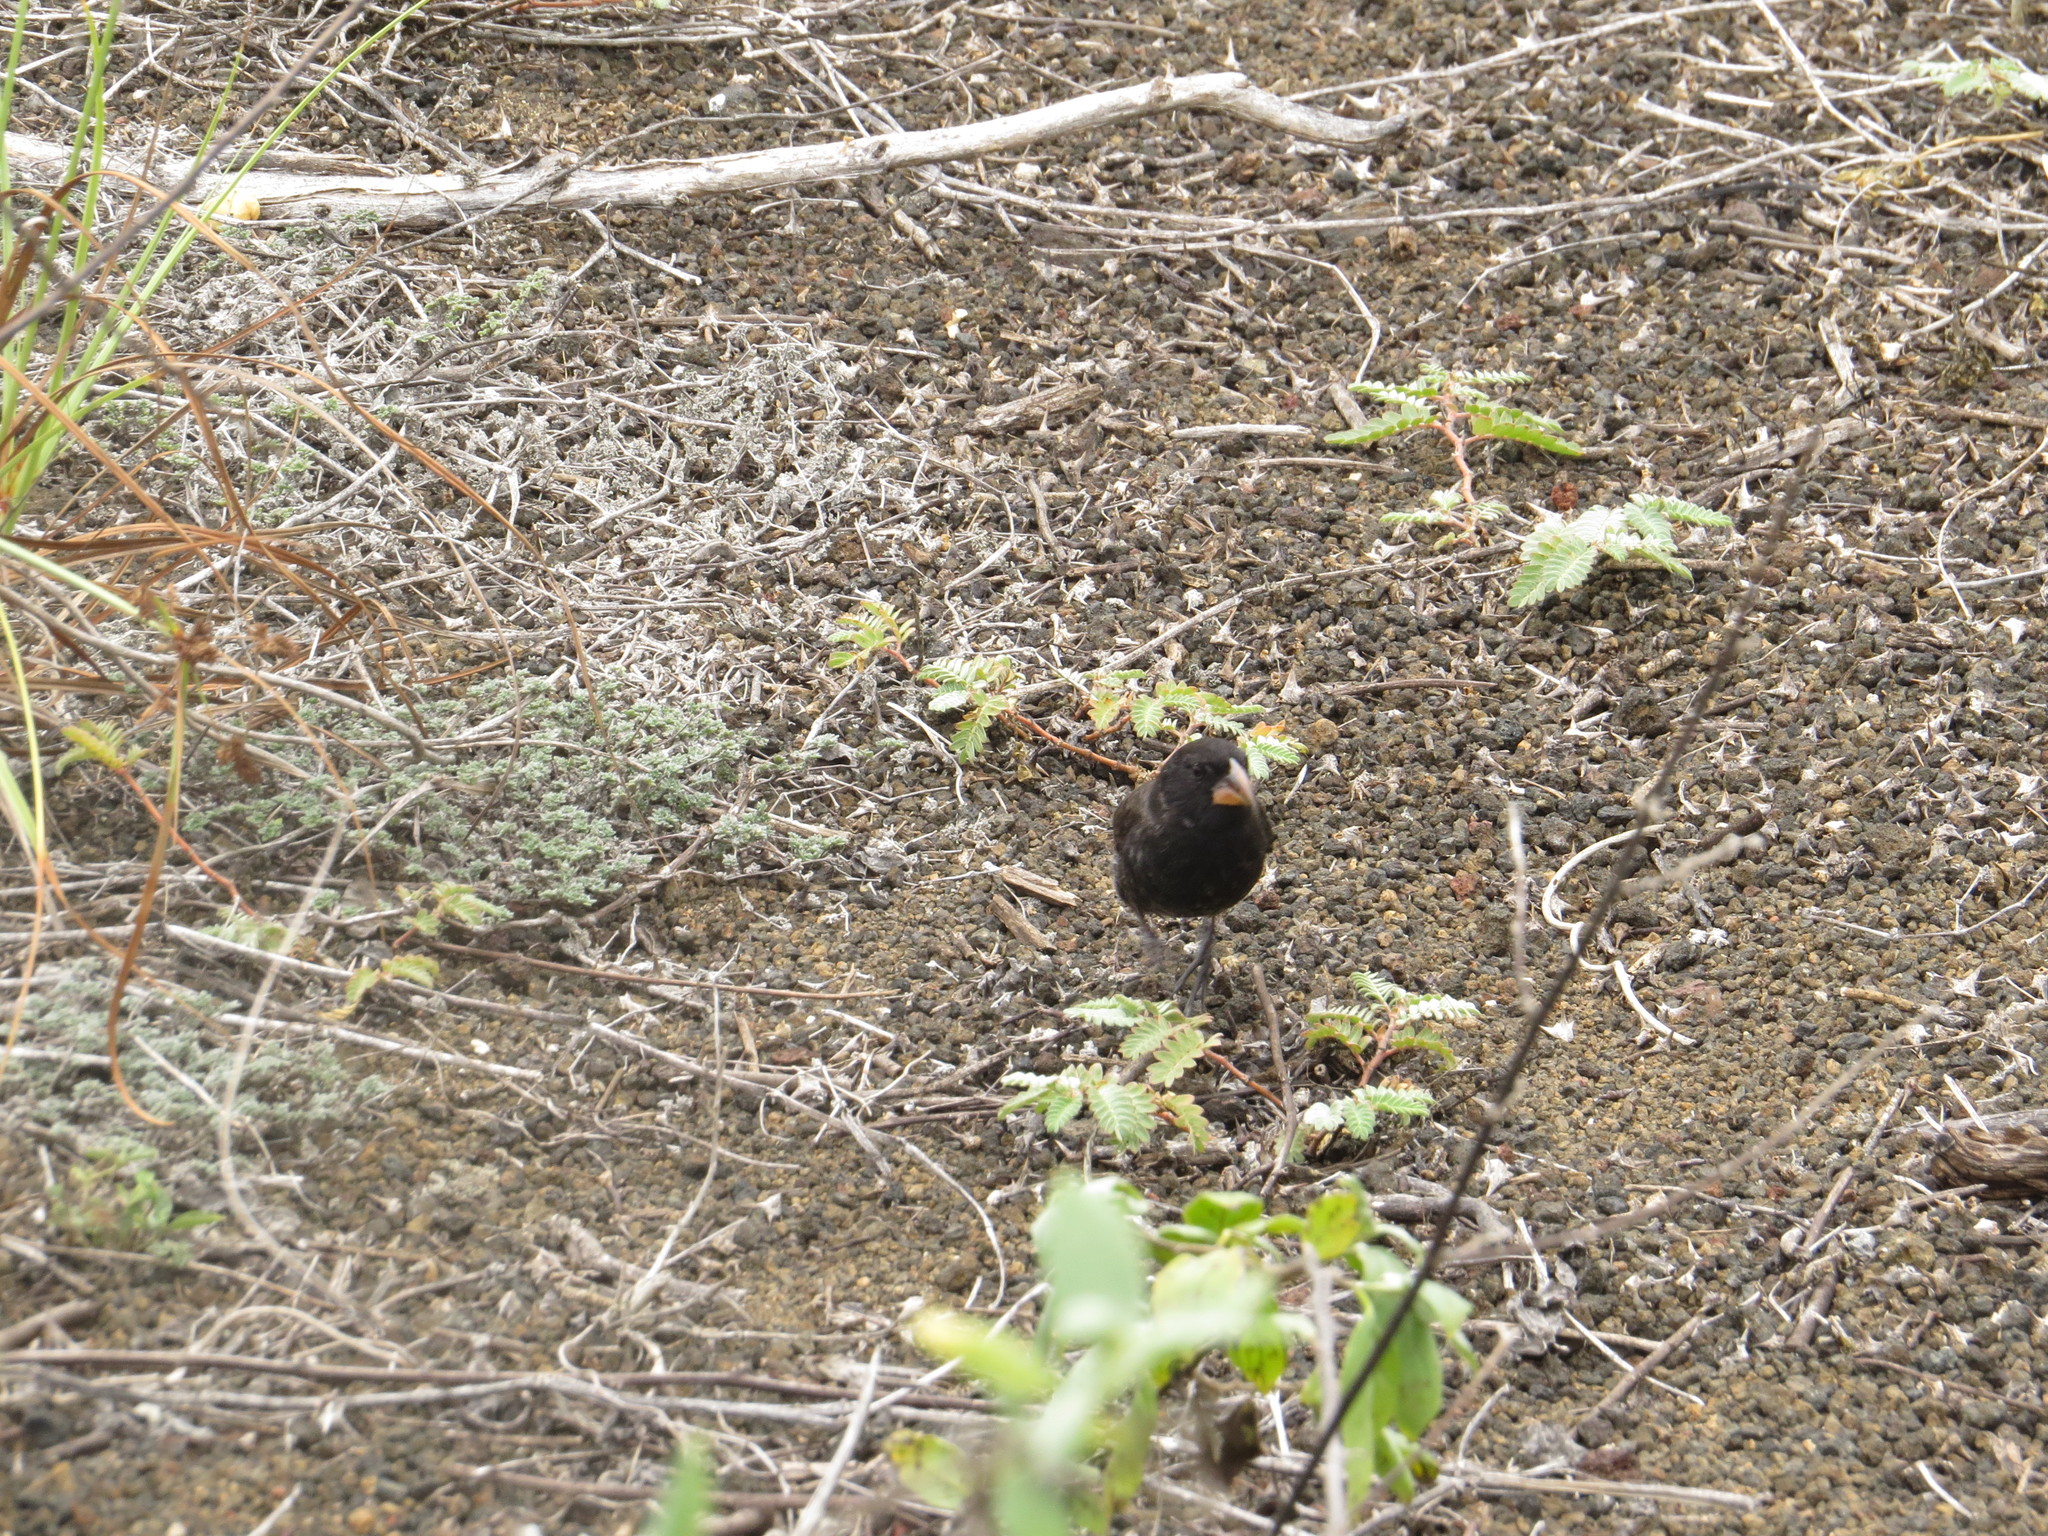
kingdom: Animalia
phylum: Chordata
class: Aves
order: Passeriformes
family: Thraupidae
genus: Geospiza
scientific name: Geospiza fortis
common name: Medium ground finch
